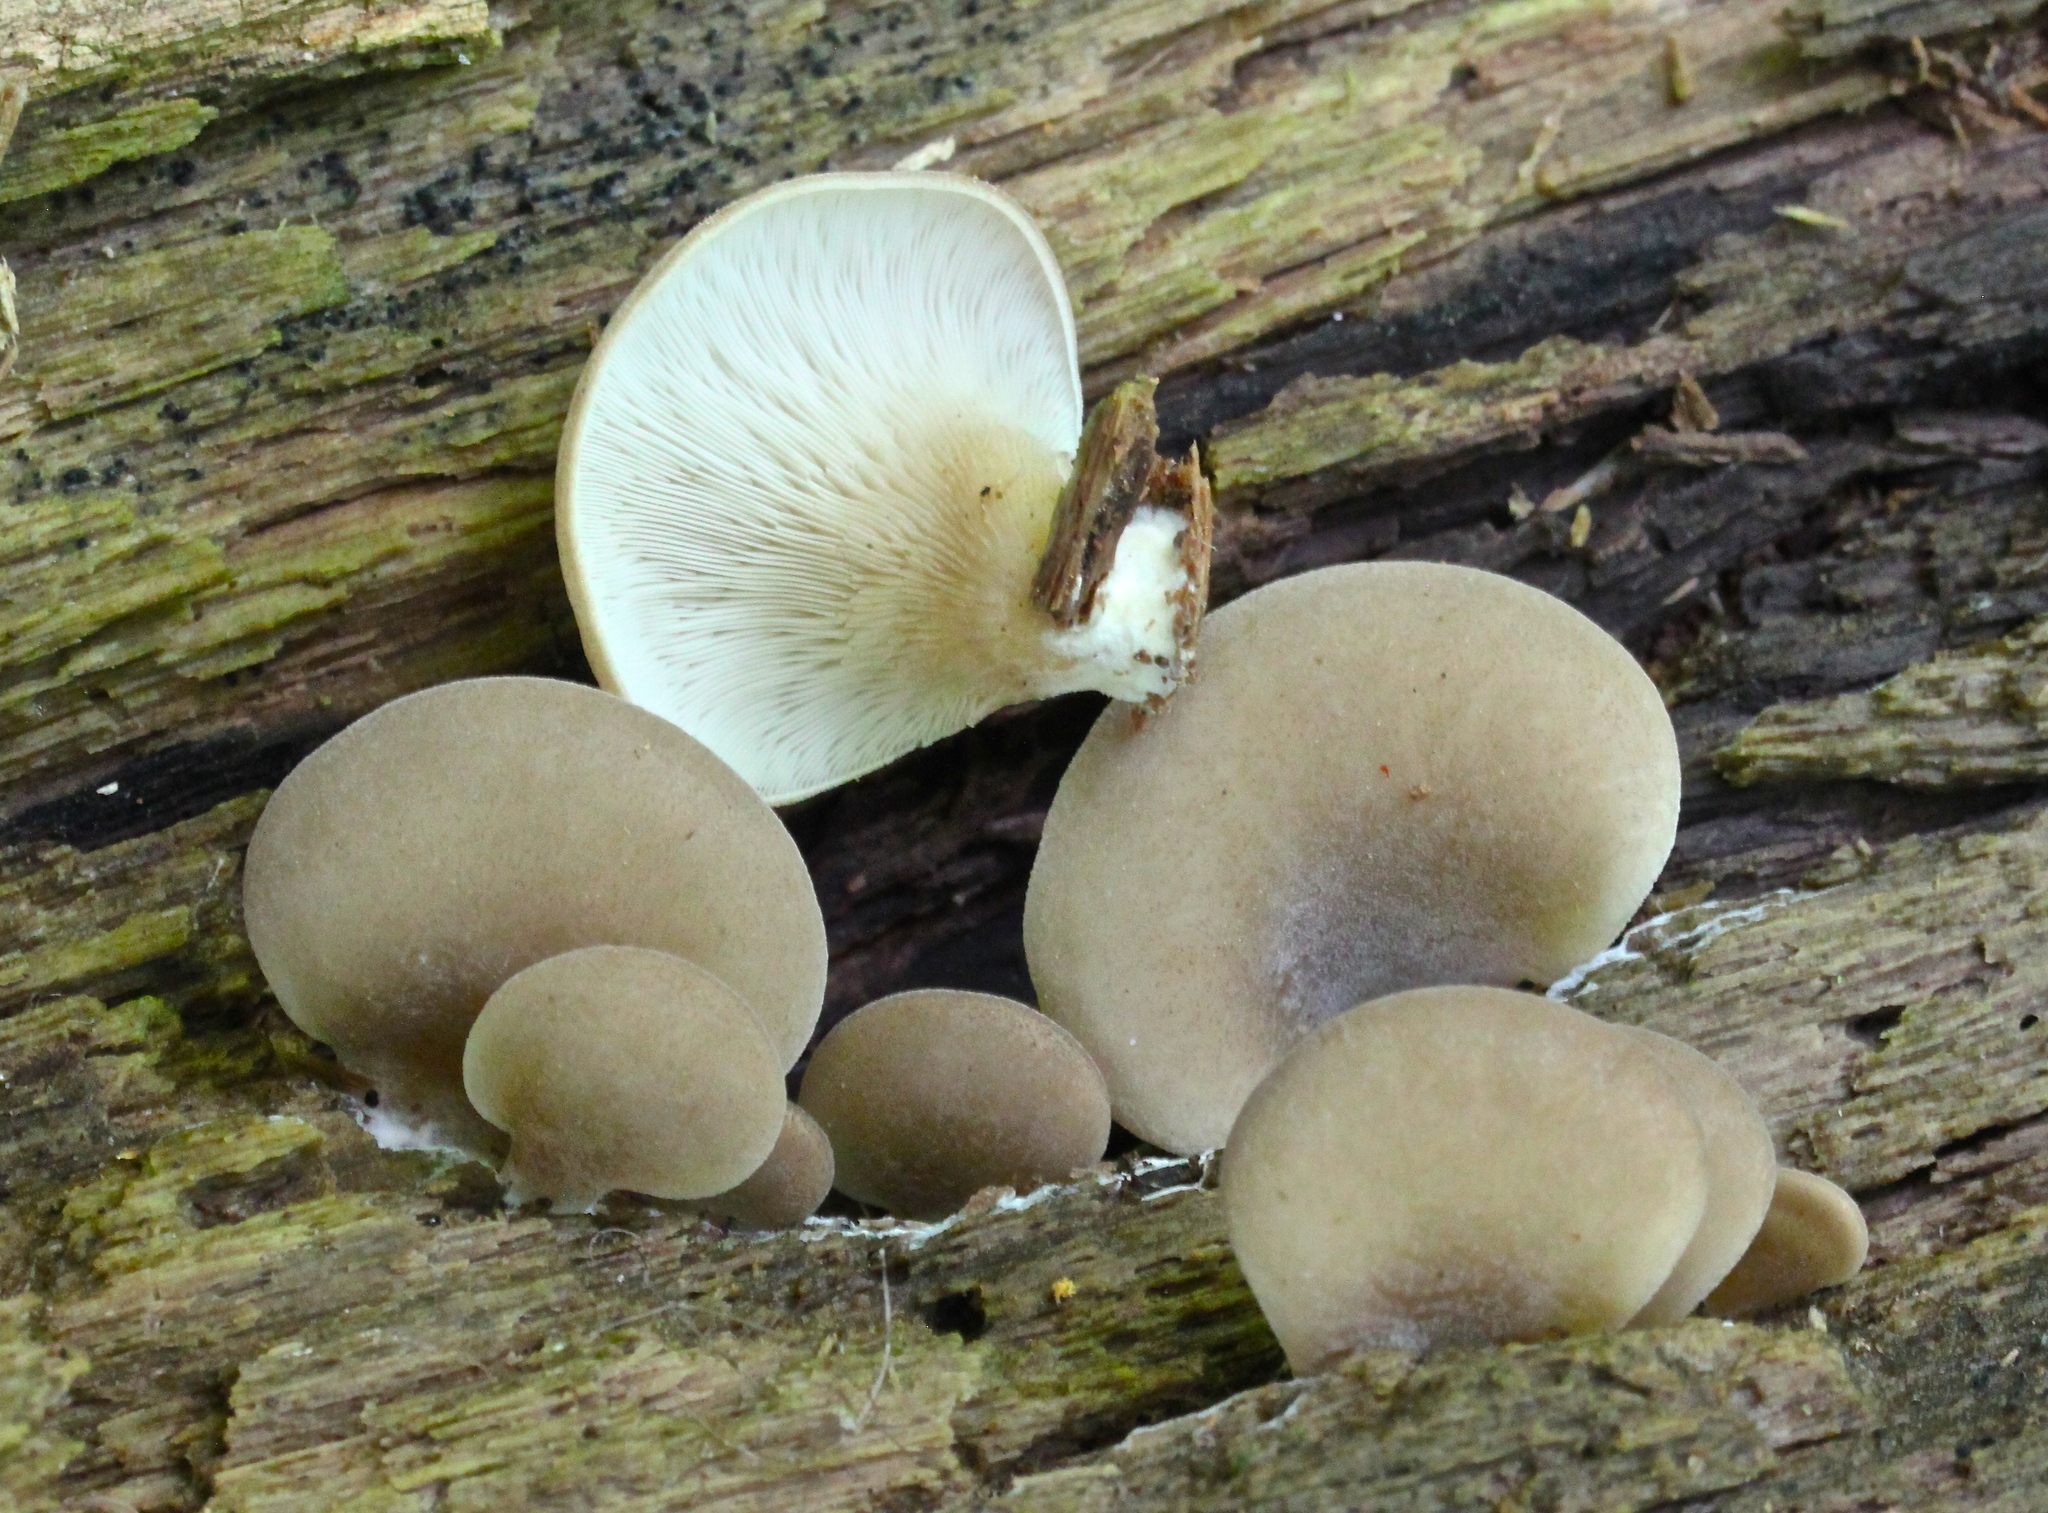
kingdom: Fungi
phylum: Basidiomycota
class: Agaricomycetes
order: Agaricales
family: Pleurotaceae
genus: Hohenbuehelia
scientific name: Hohenbuehelia petaloides
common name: Shoehorn oyster
